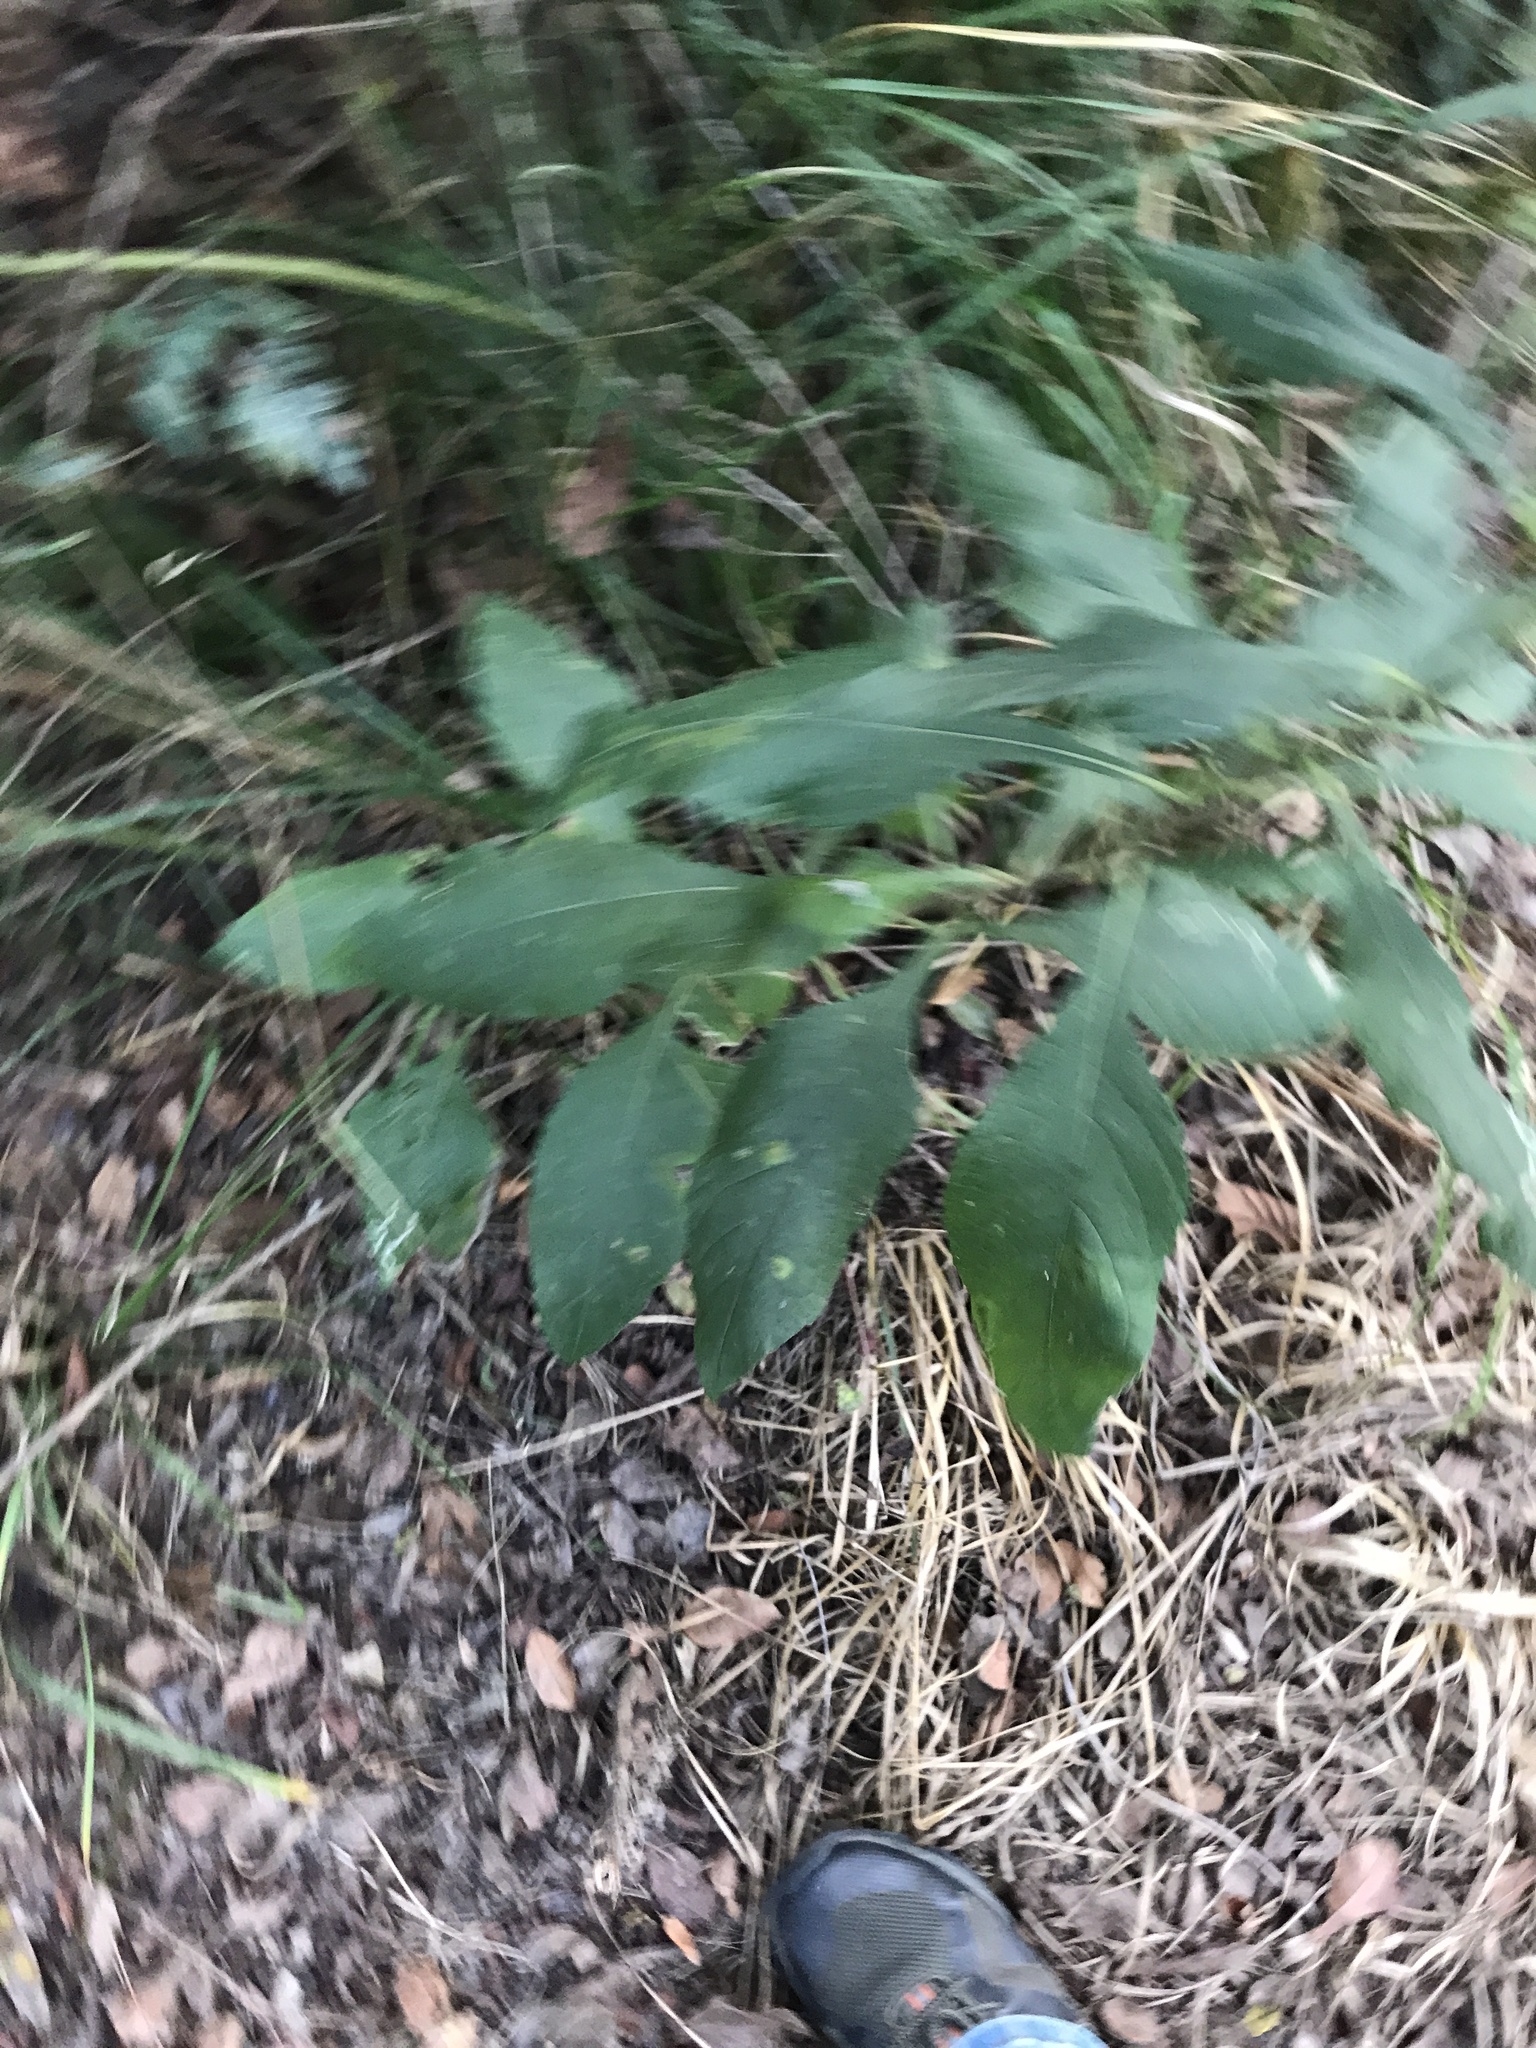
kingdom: Plantae
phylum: Tracheophyta
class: Magnoliopsida
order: Asterales
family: Asteraceae
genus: Verbesina
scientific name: Verbesina virginica
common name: Frostweed
